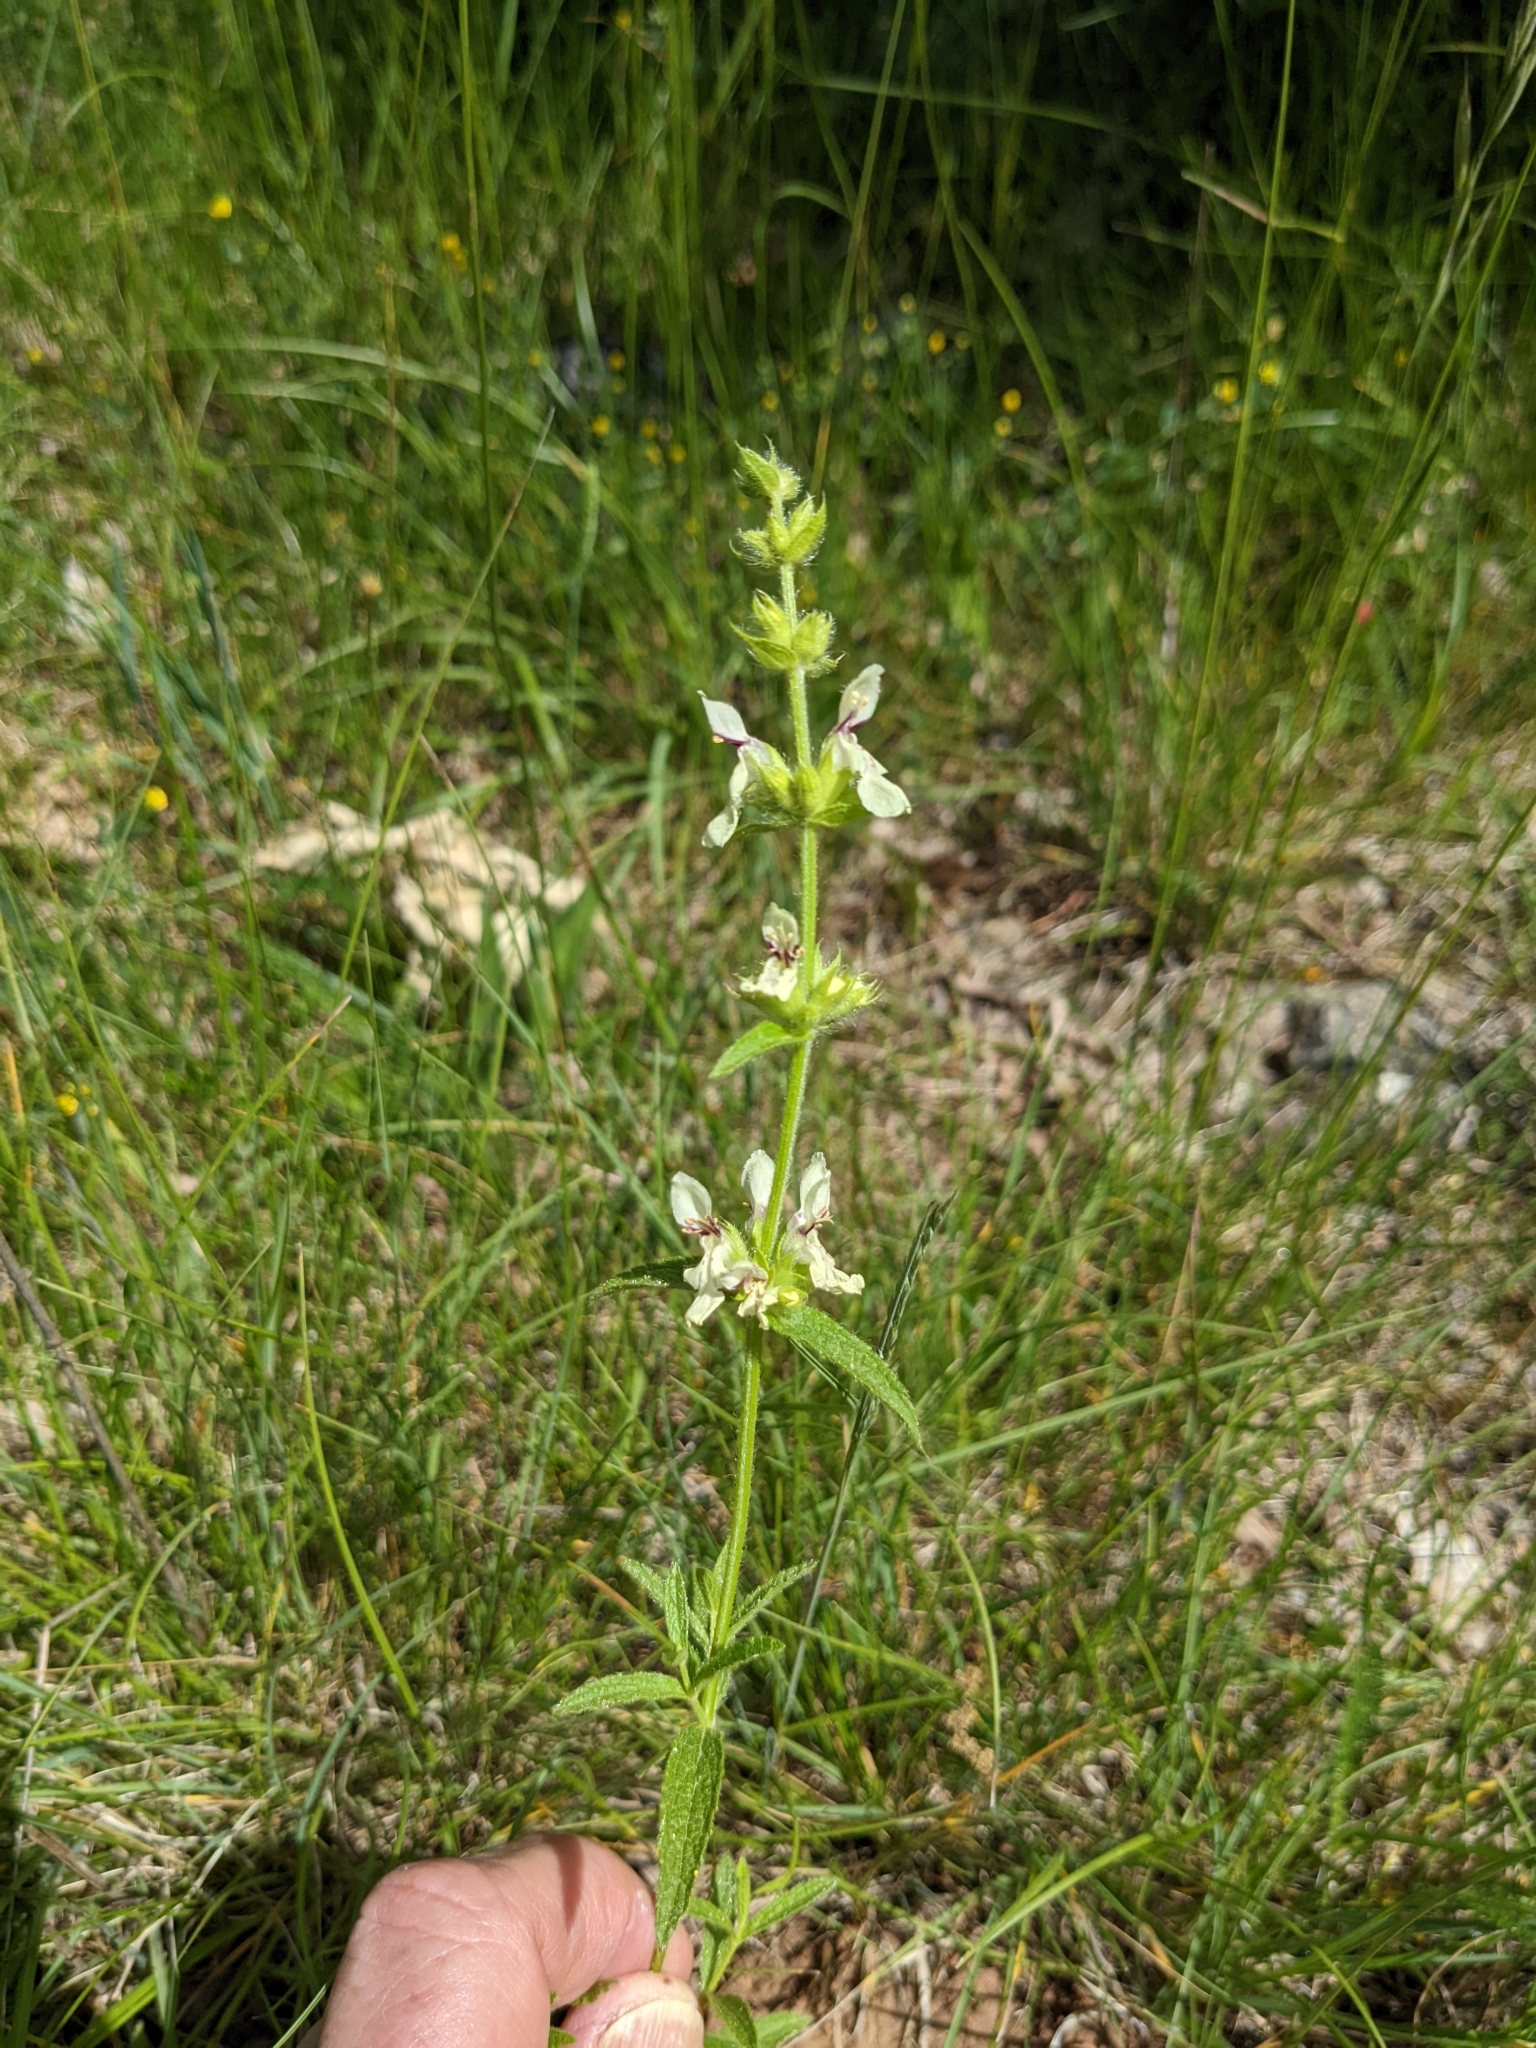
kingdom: Plantae
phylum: Tracheophyta
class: Magnoliopsida
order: Lamiales
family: Lamiaceae
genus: Stachys
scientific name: Stachys recta
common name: Perennial yellow-woundwort
